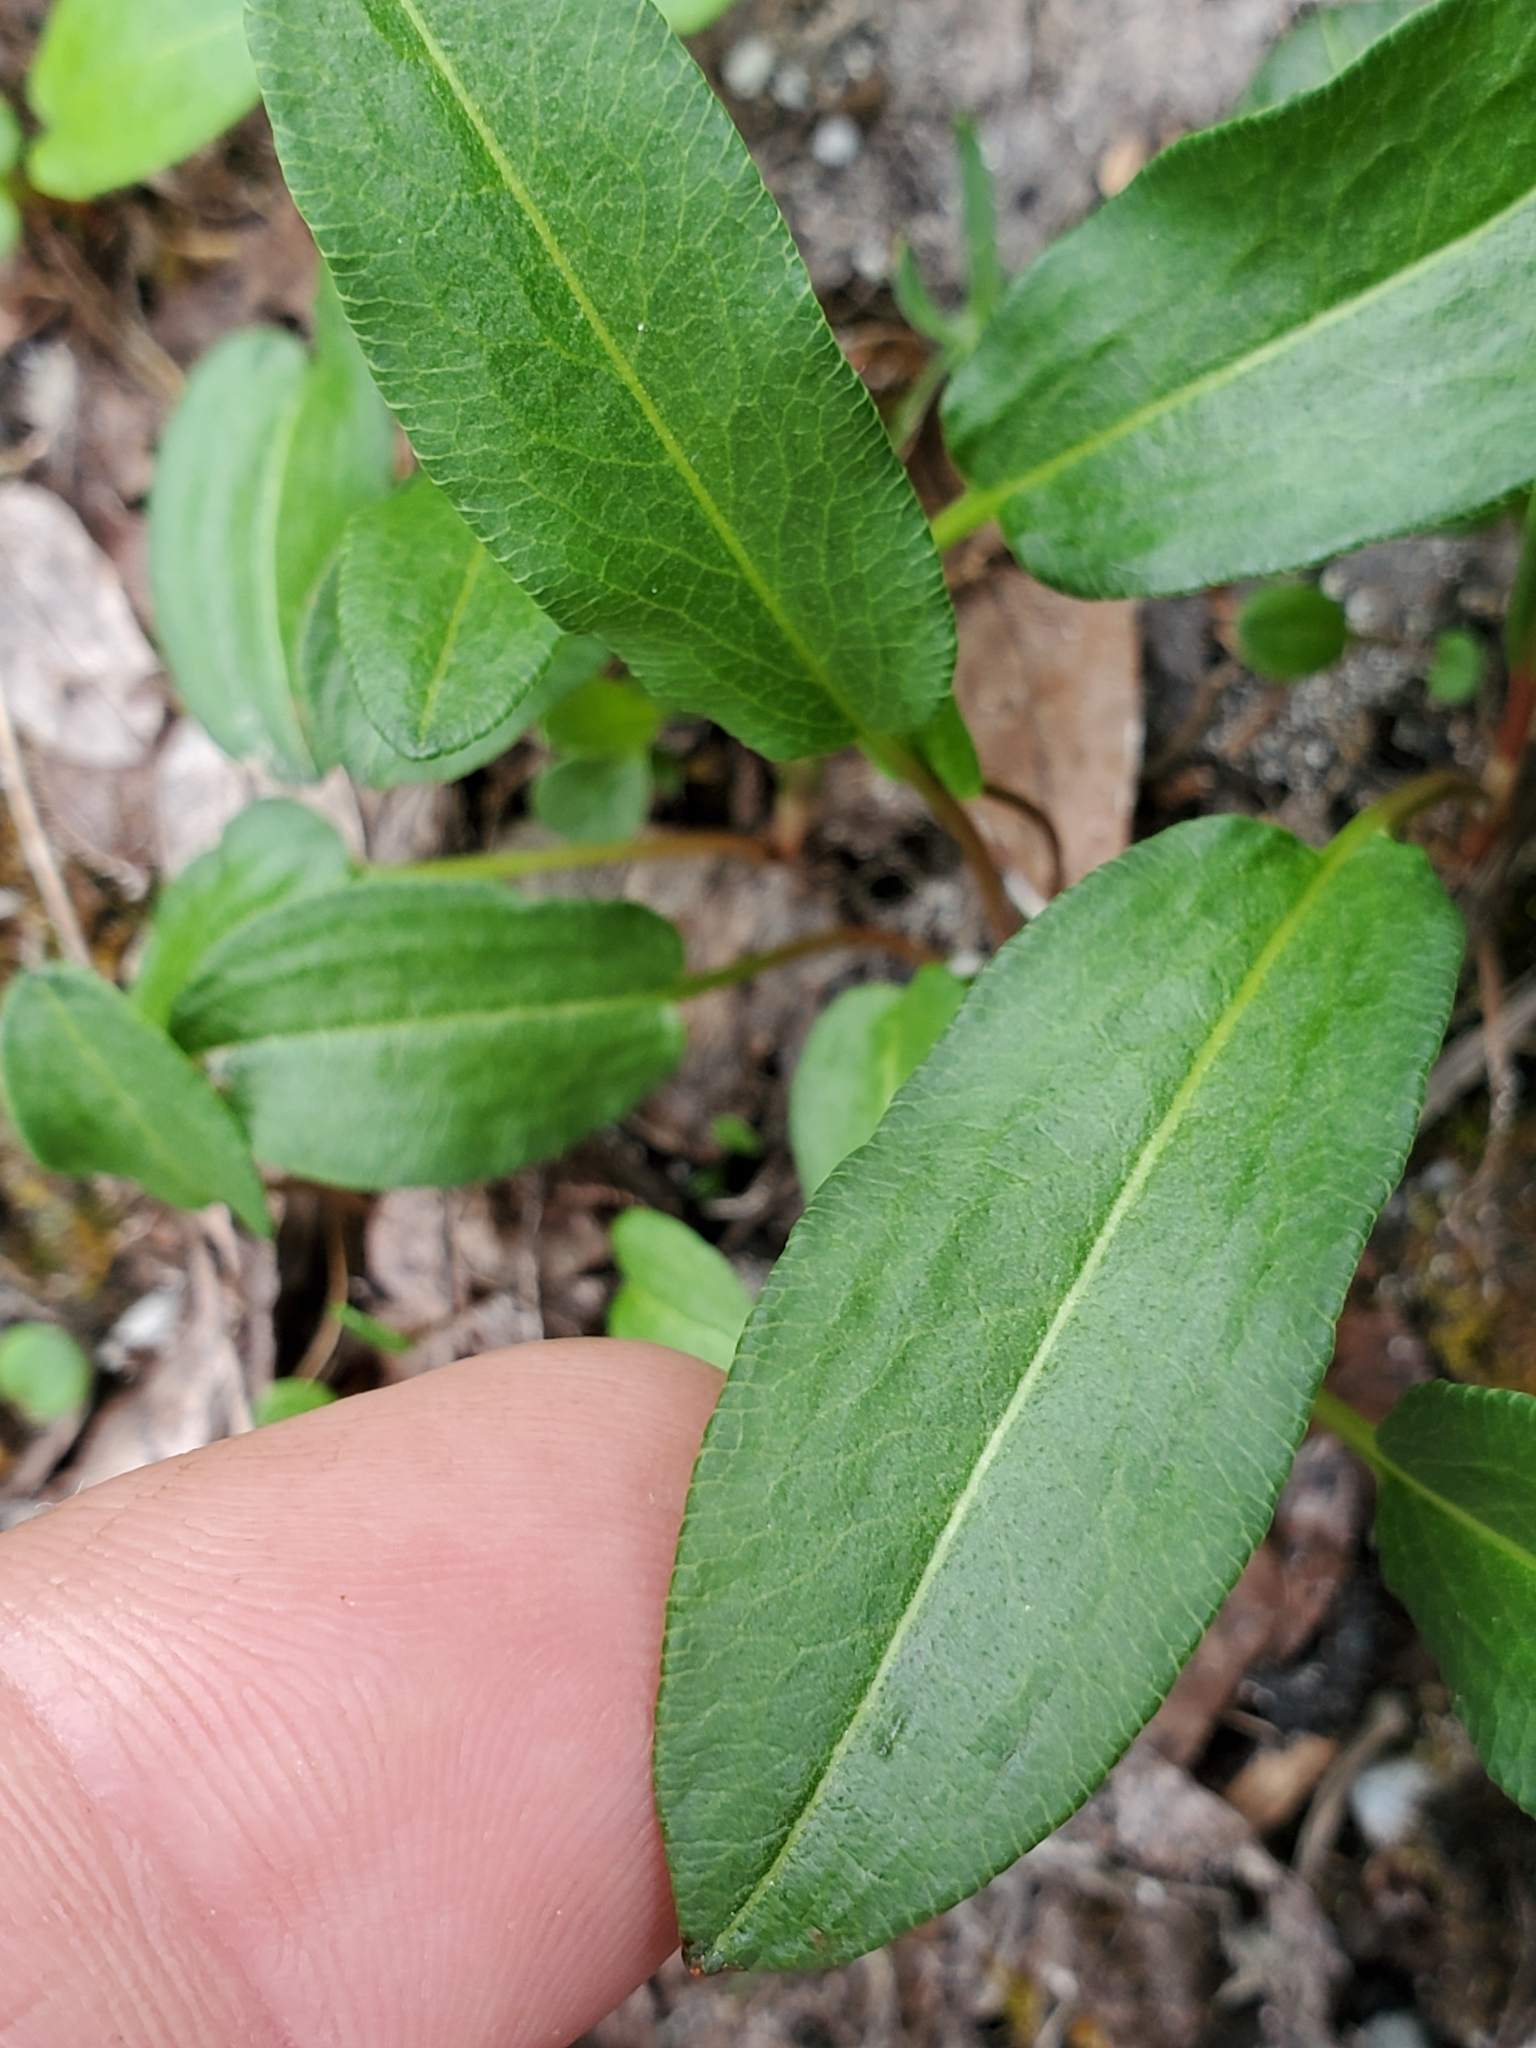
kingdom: Plantae
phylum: Tracheophyta
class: Magnoliopsida
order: Caryophyllales
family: Polygonaceae
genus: Bistorta
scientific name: Bistorta vivipara
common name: Alpine bistort
